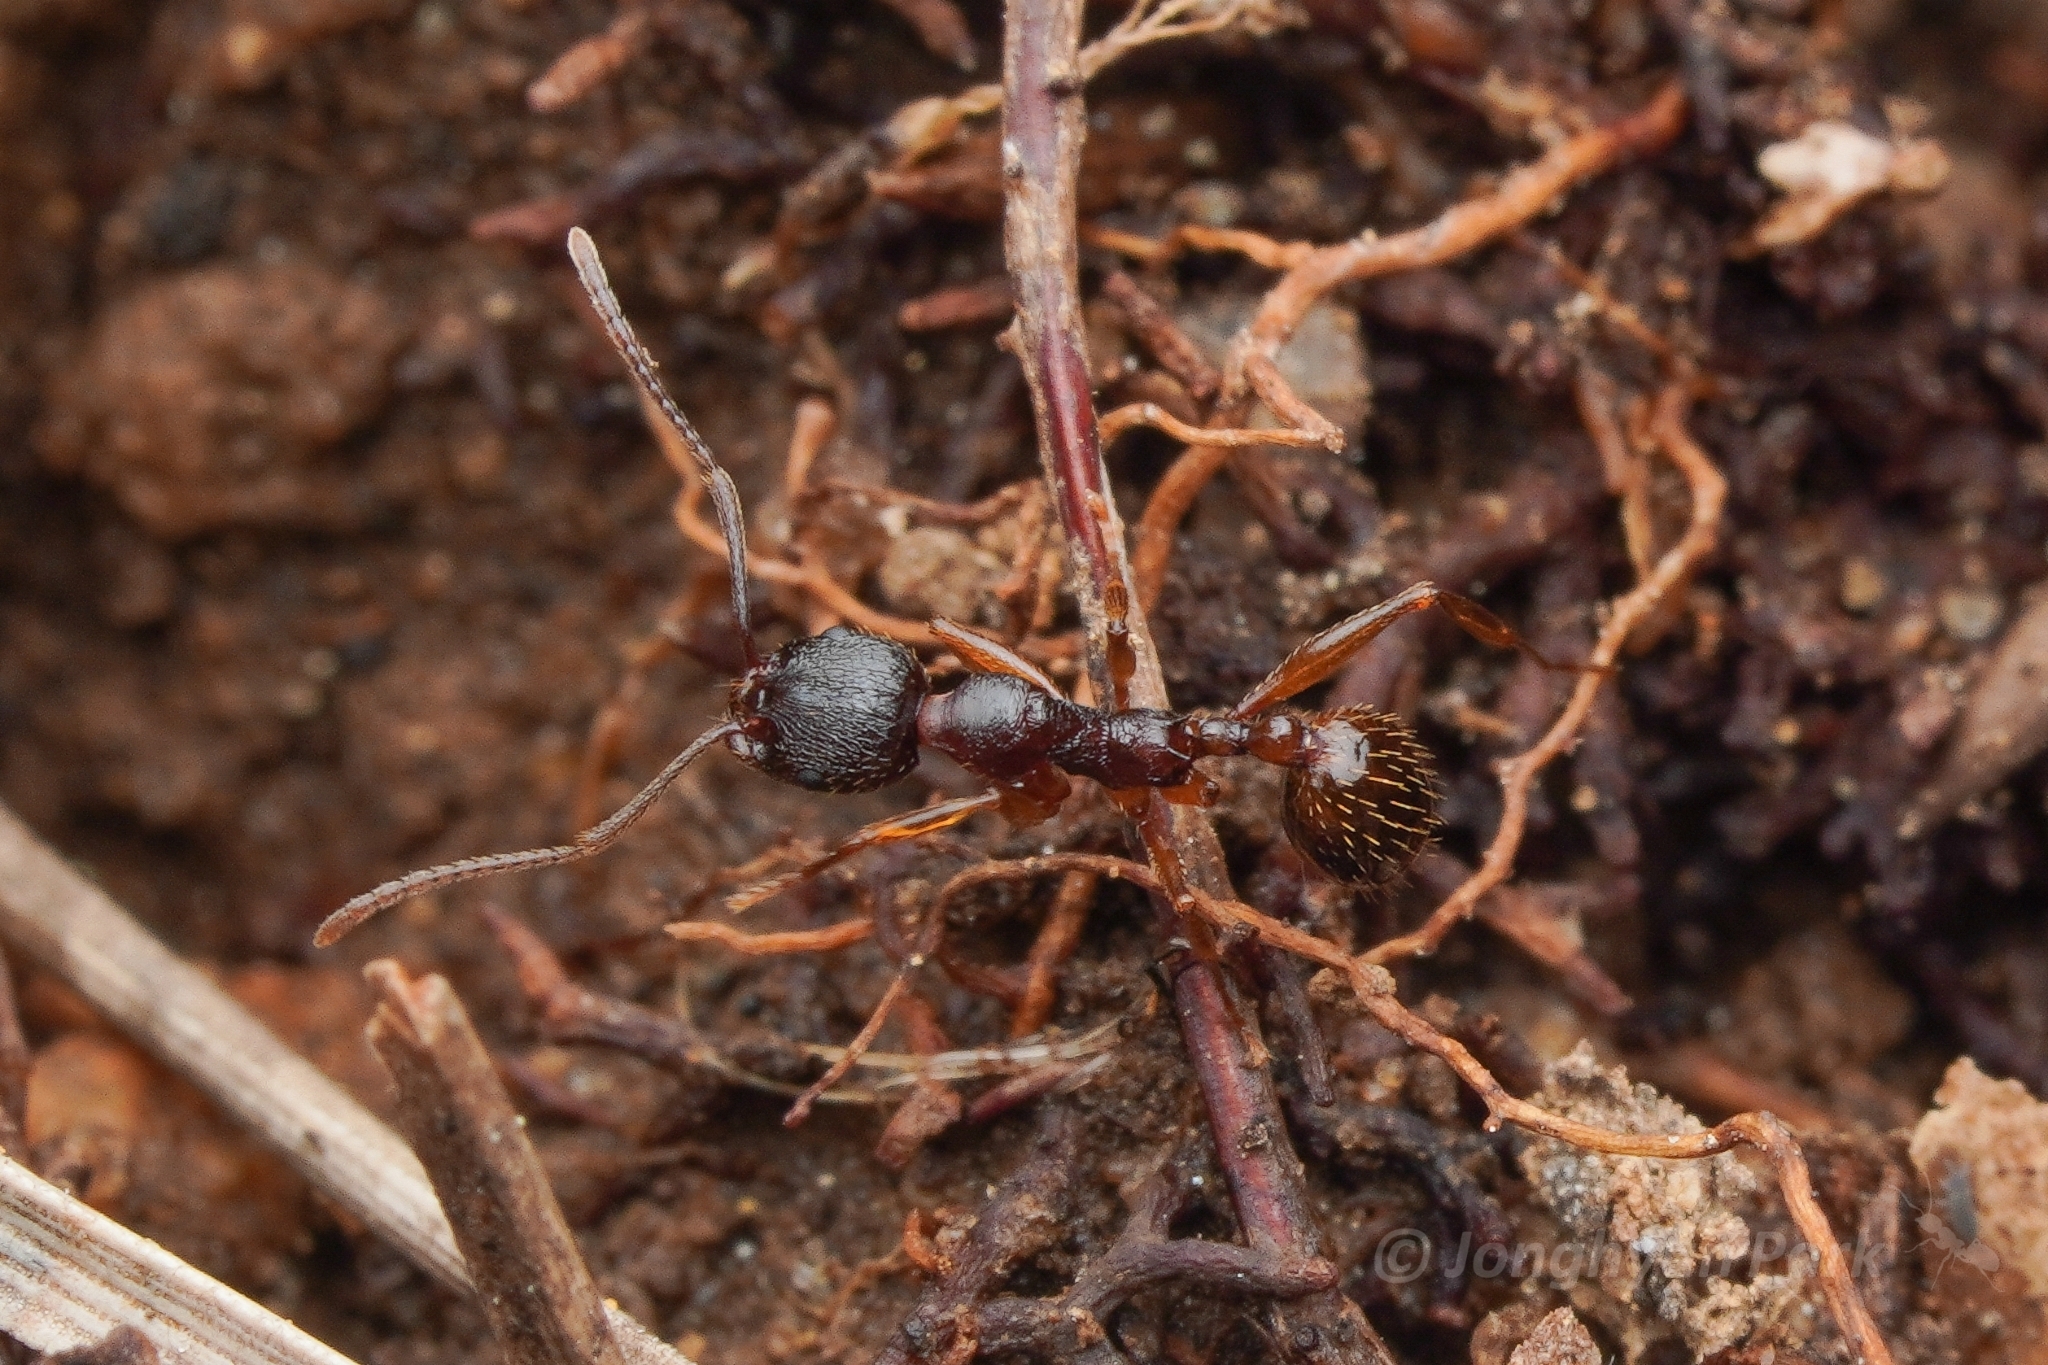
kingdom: Animalia
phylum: Arthropoda
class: Insecta
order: Hymenoptera
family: Formicidae
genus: Aphaenogaster
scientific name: Aphaenogaster japonica
